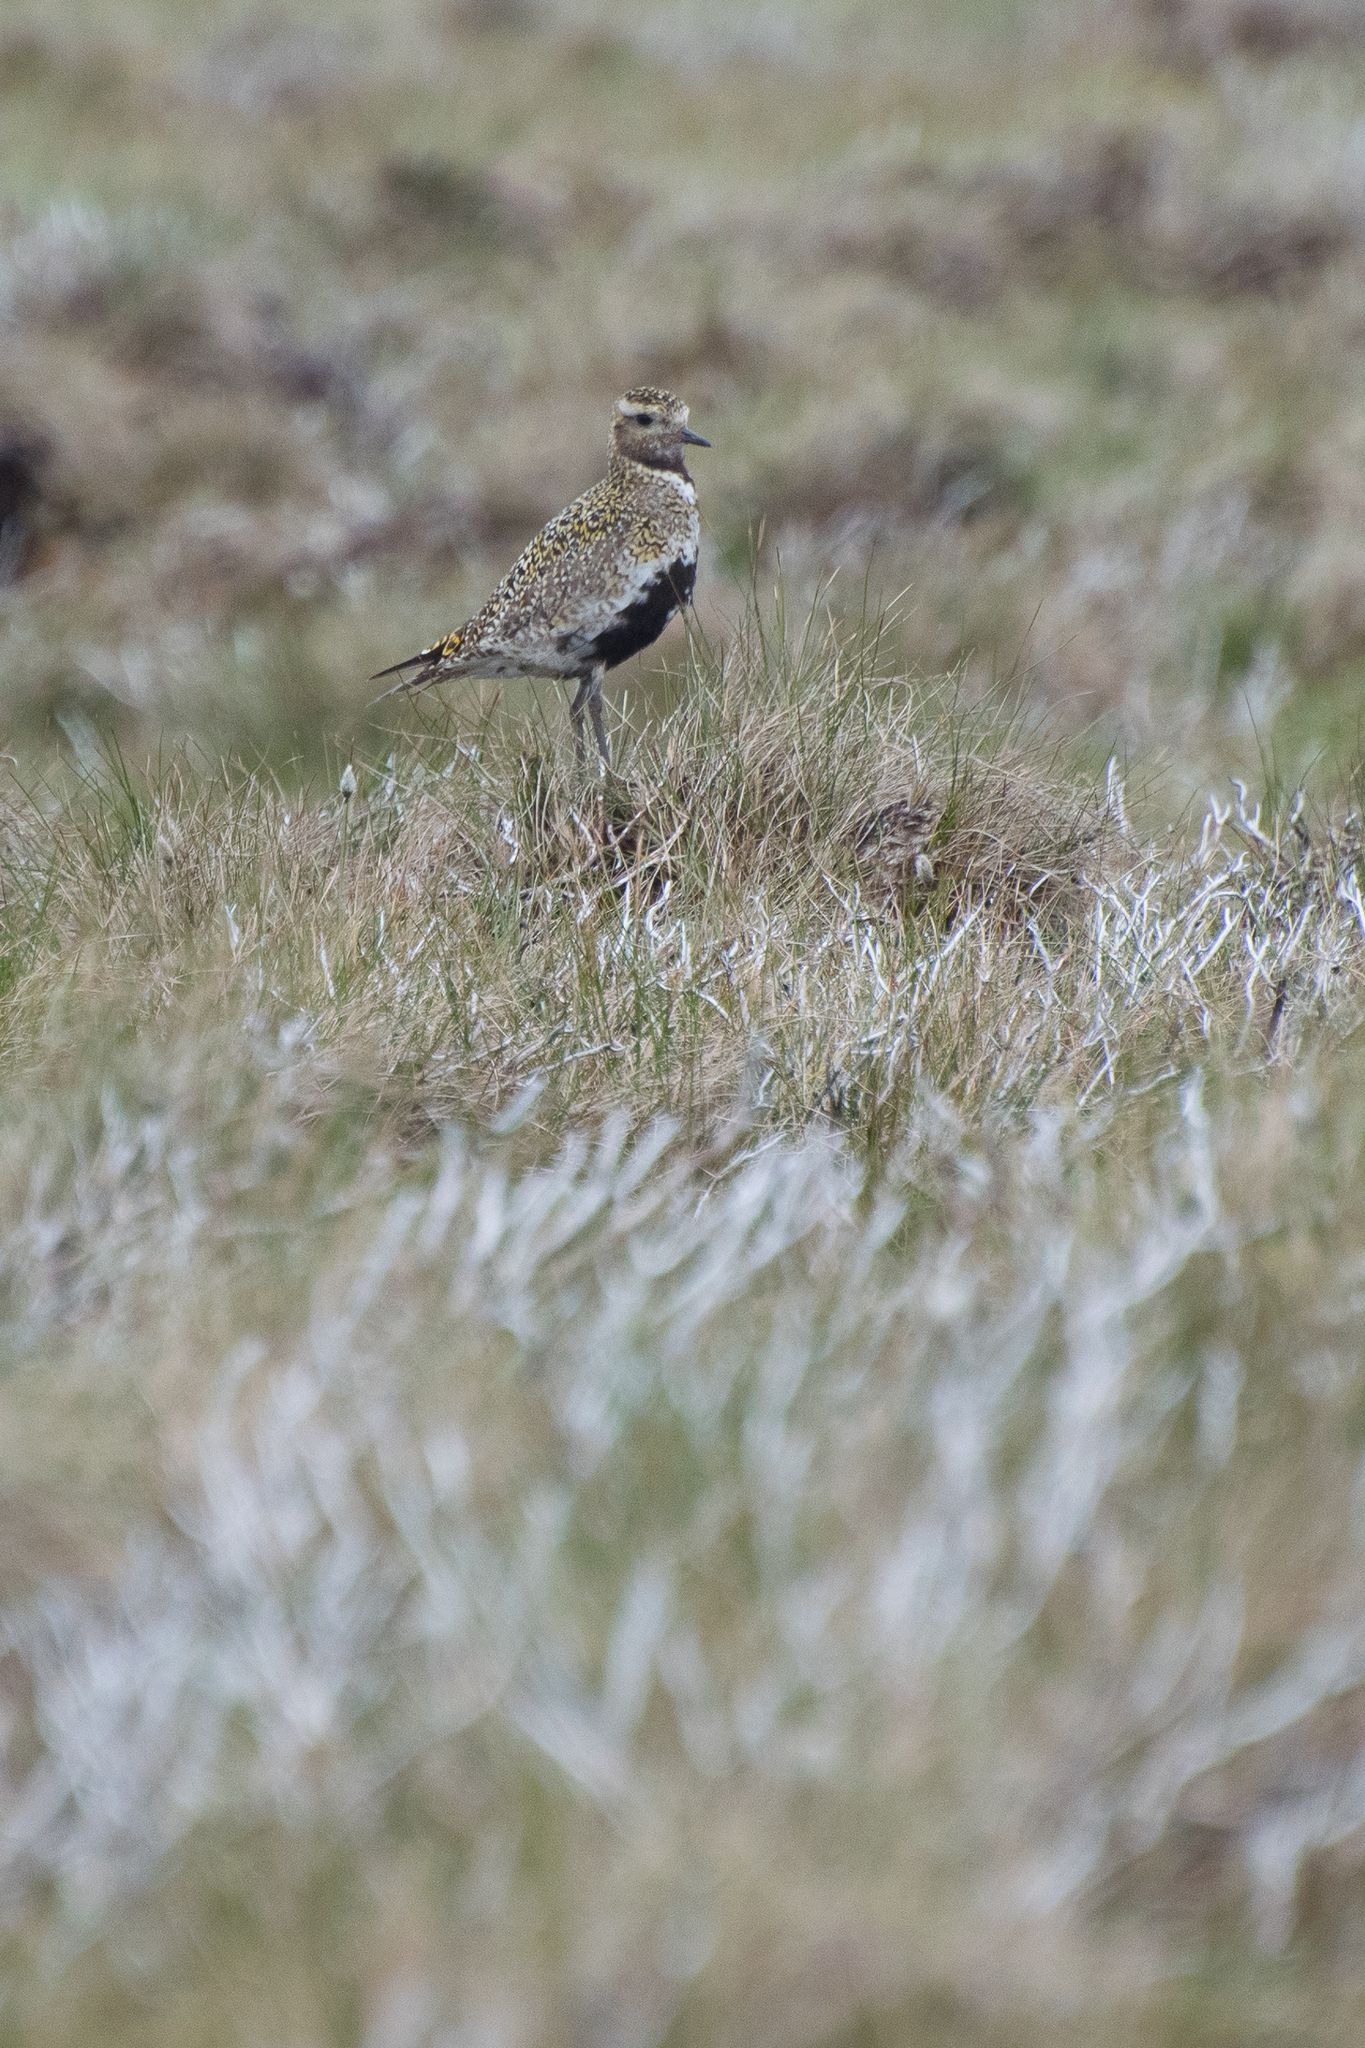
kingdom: Animalia
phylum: Chordata
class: Aves
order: Charadriiformes
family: Charadriidae
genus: Pluvialis
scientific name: Pluvialis apricaria
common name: European golden plover
